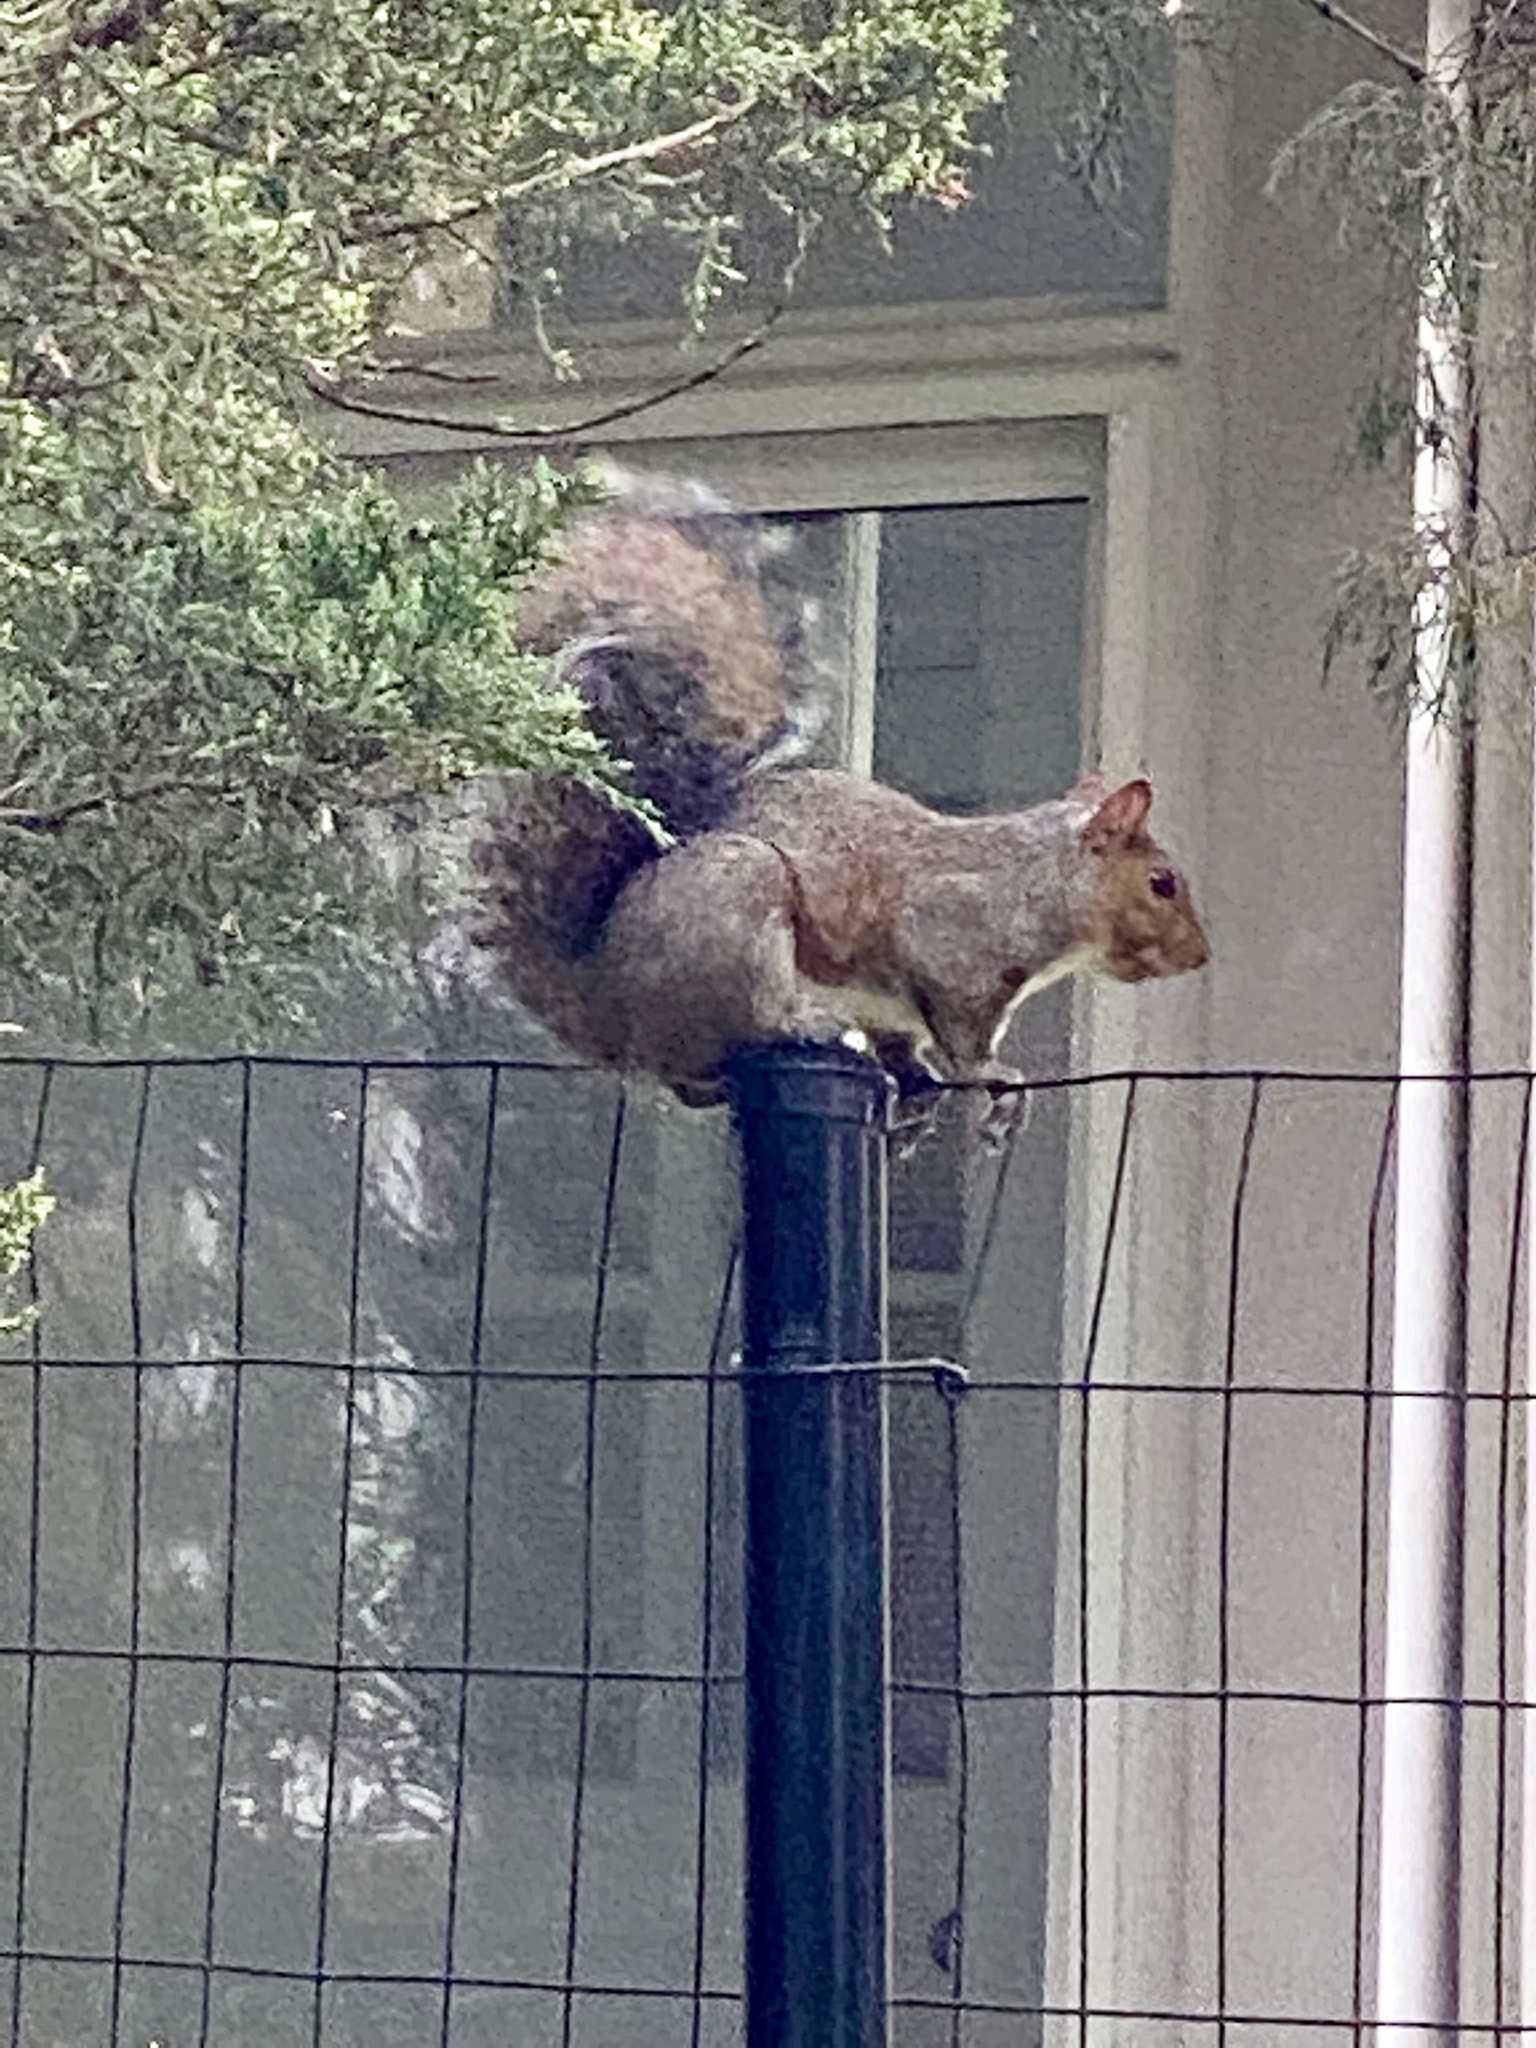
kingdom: Animalia
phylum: Chordata
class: Mammalia
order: Rodentia
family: Sciuridae
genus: Sciurus
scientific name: Sciurus carolinensis
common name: Eastern gray squirrel
